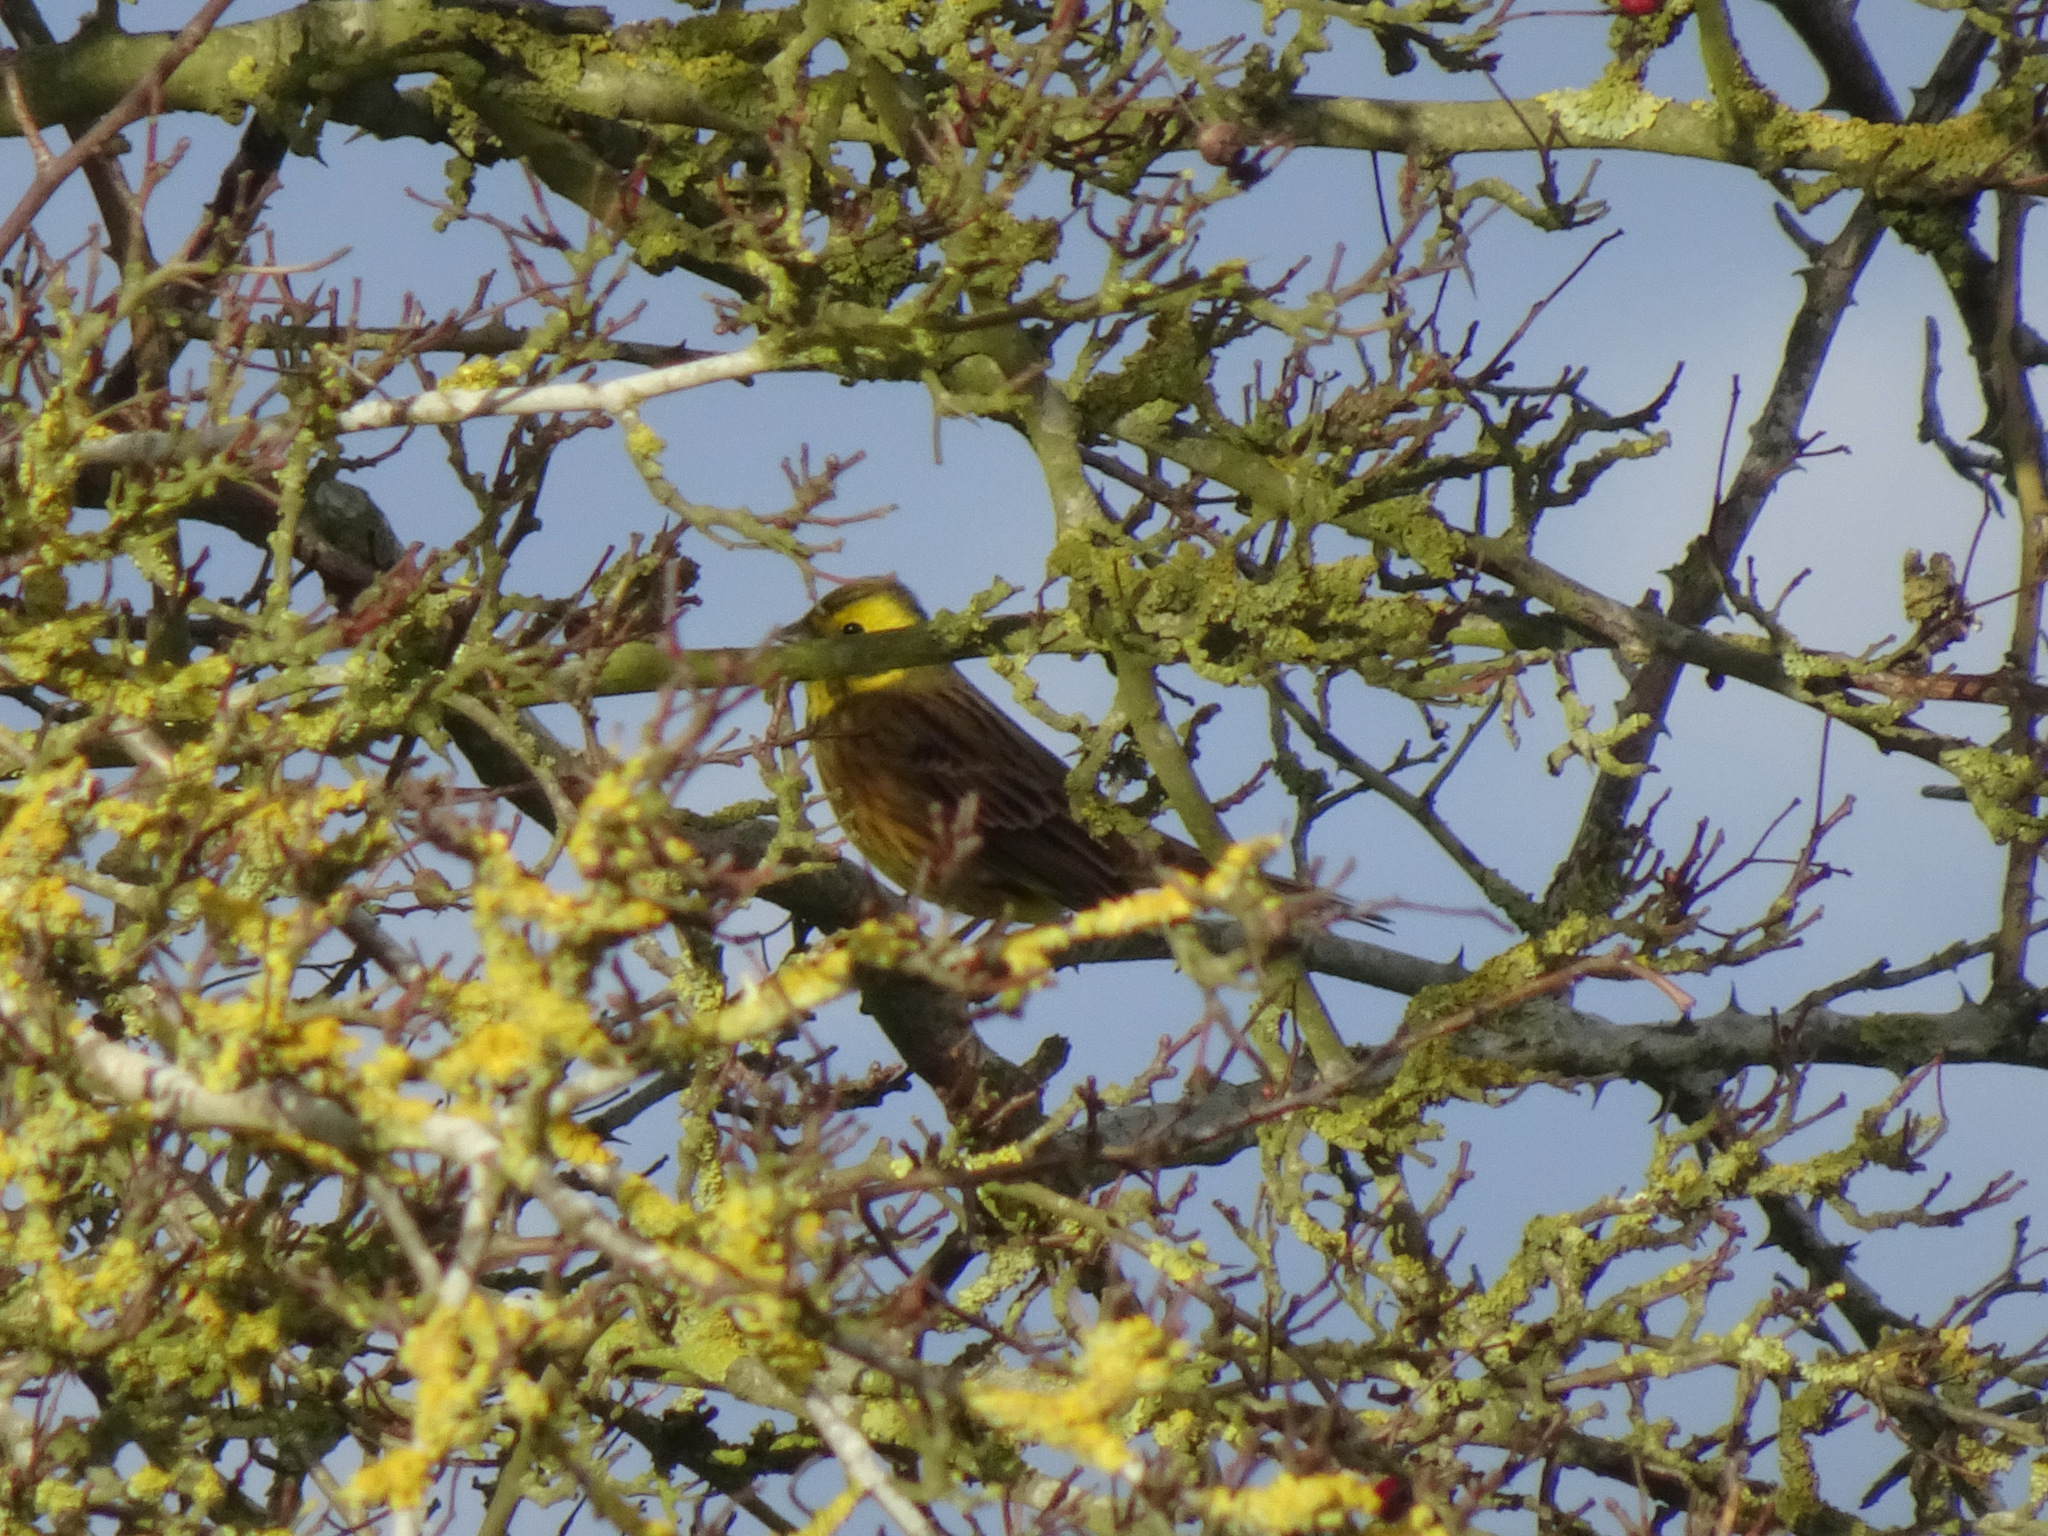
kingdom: Animalia
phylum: Chordata
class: Aves
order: Passeriformes
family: Emberizidae
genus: Emberiza
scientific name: Emberiza citrinella
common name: Yellowhammer
